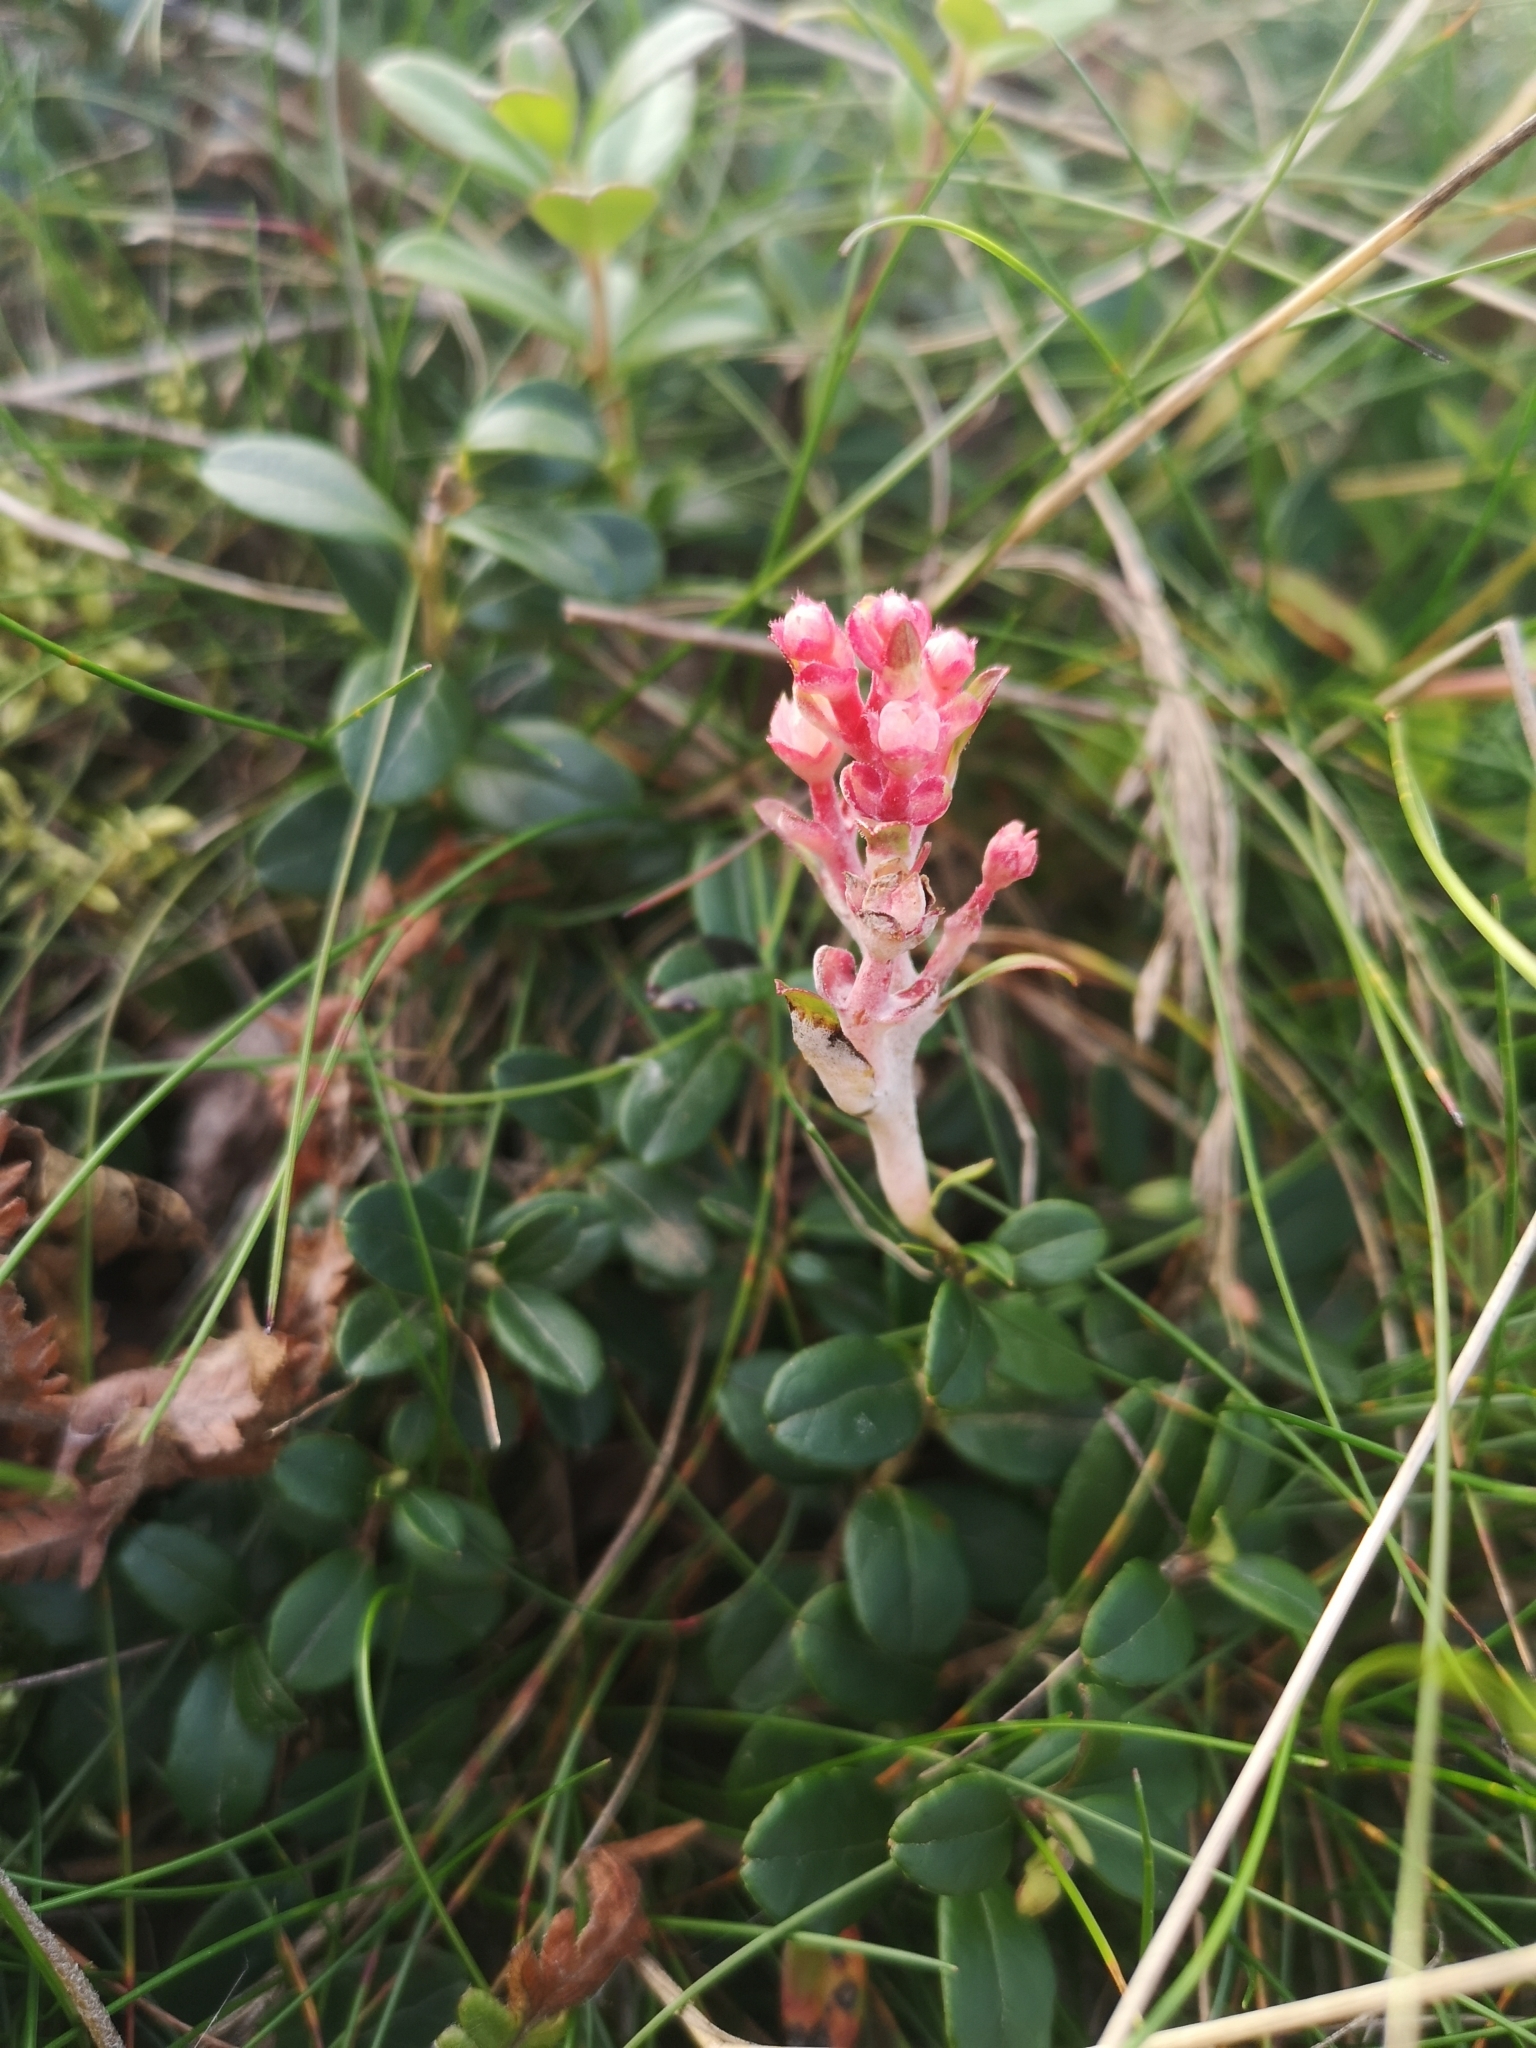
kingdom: Plantae
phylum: Tracheophyta
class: Magnoliopsida
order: Ericales
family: Ericaceae
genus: Vaccinium
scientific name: Vaccinium vitis-idaea
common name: Cowberry
